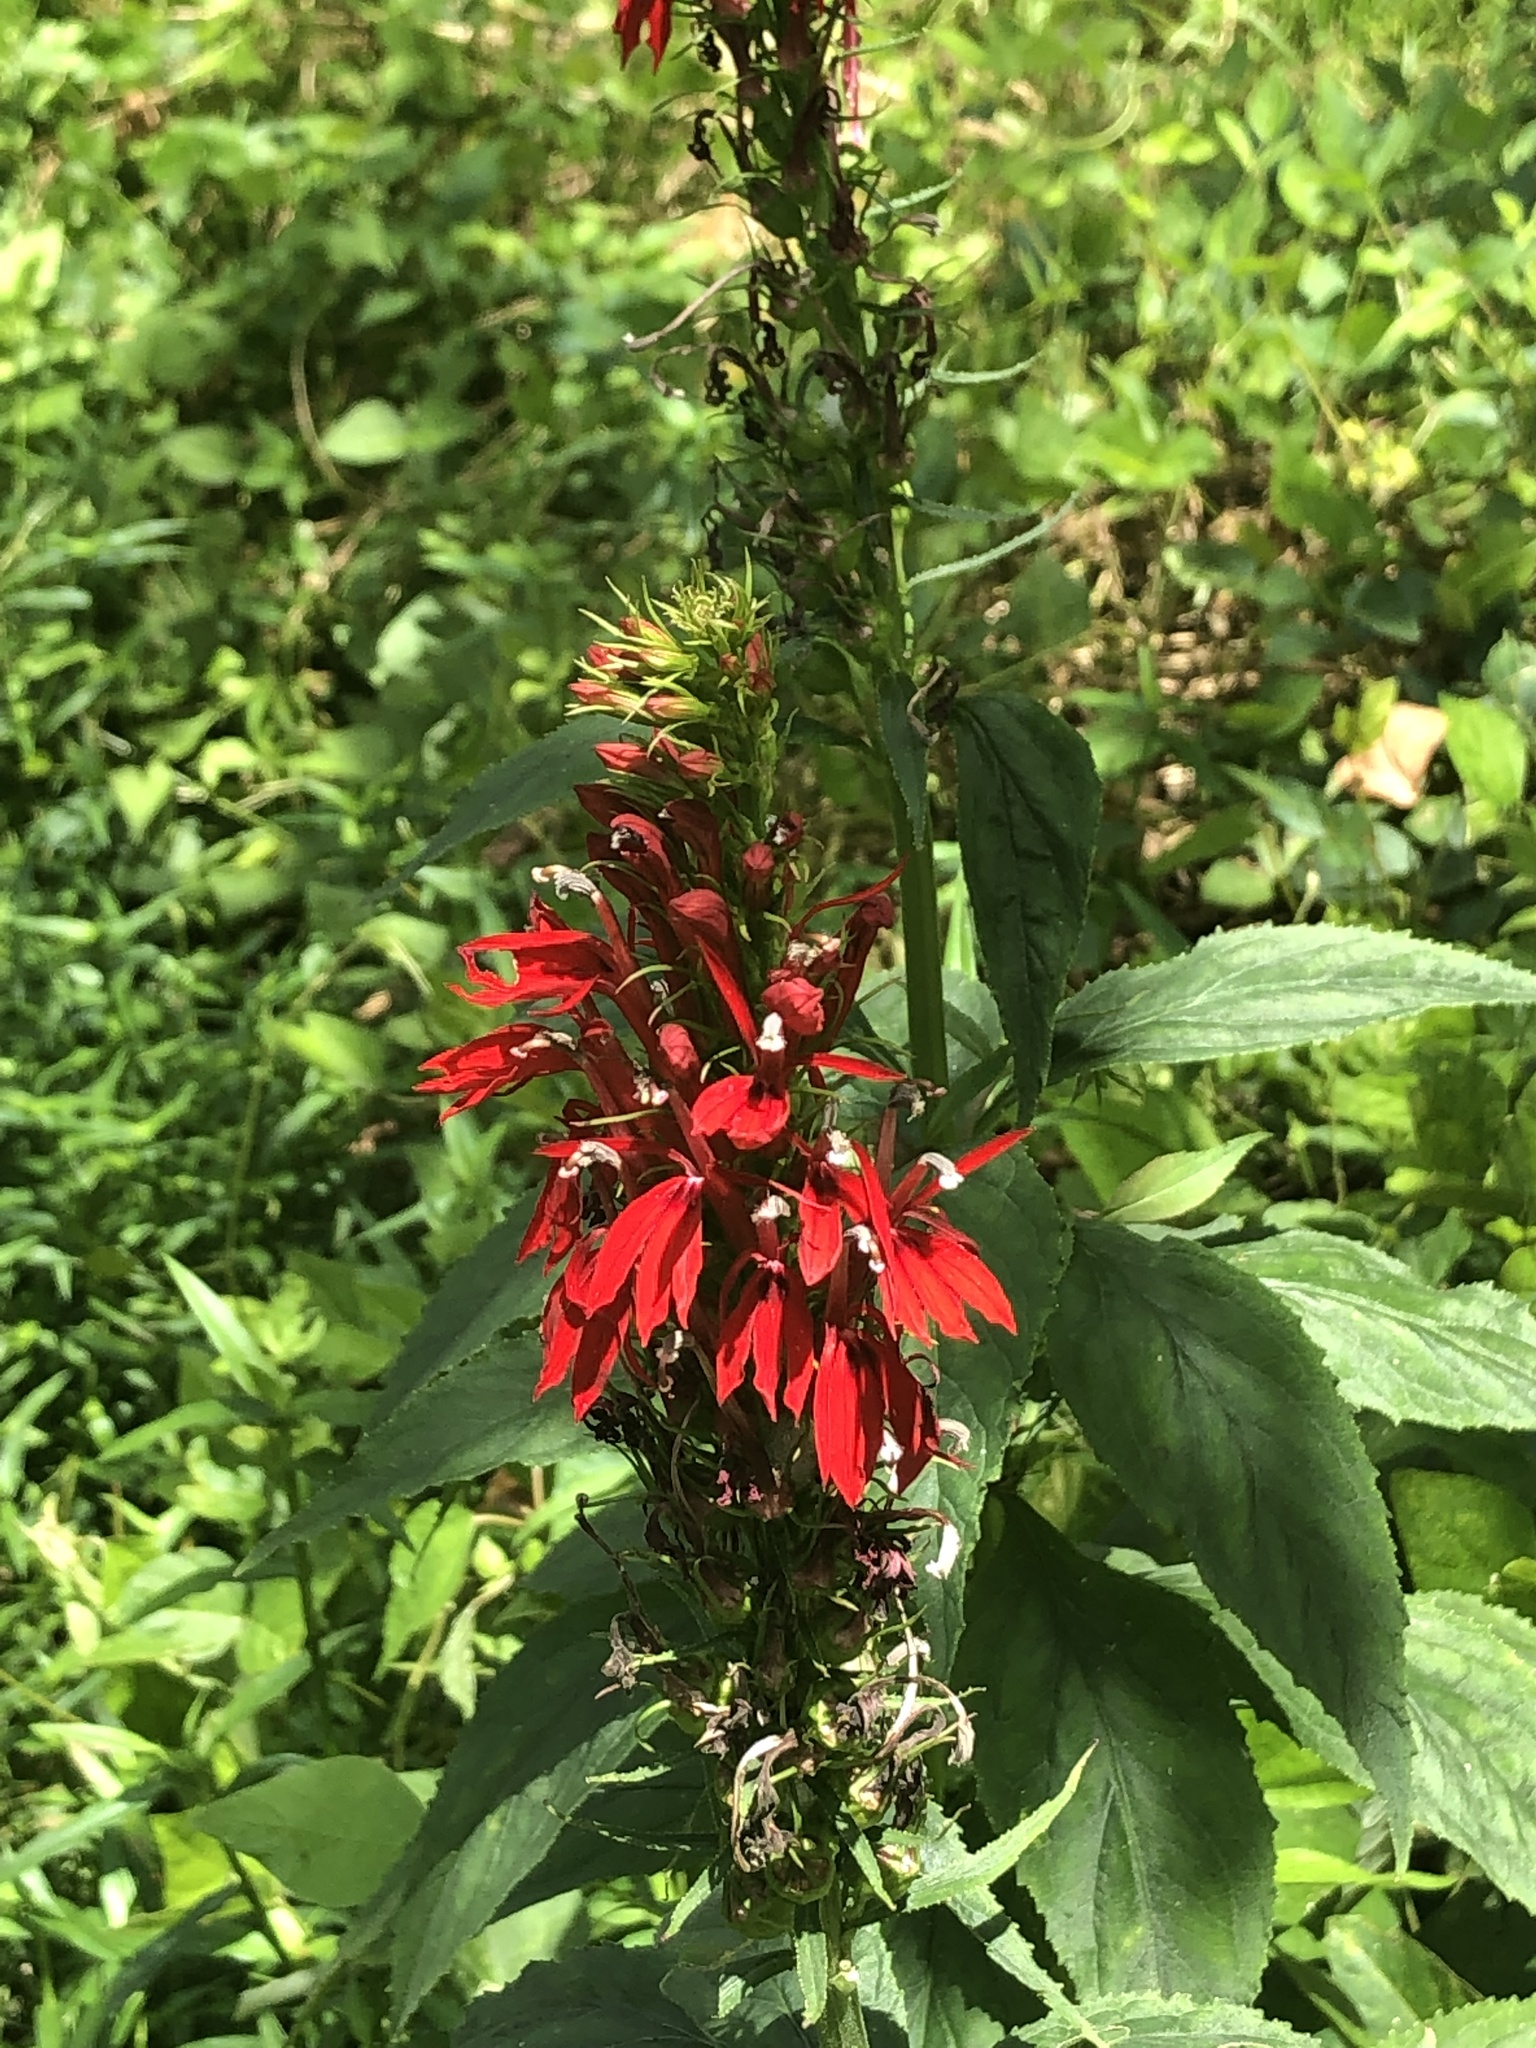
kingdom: Plantae
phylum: Tracheophyta
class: Magnoliopsida
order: Asterales
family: Campanulaceae
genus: Lobelia
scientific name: Lobelia cardinalis
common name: Cardinal flower
